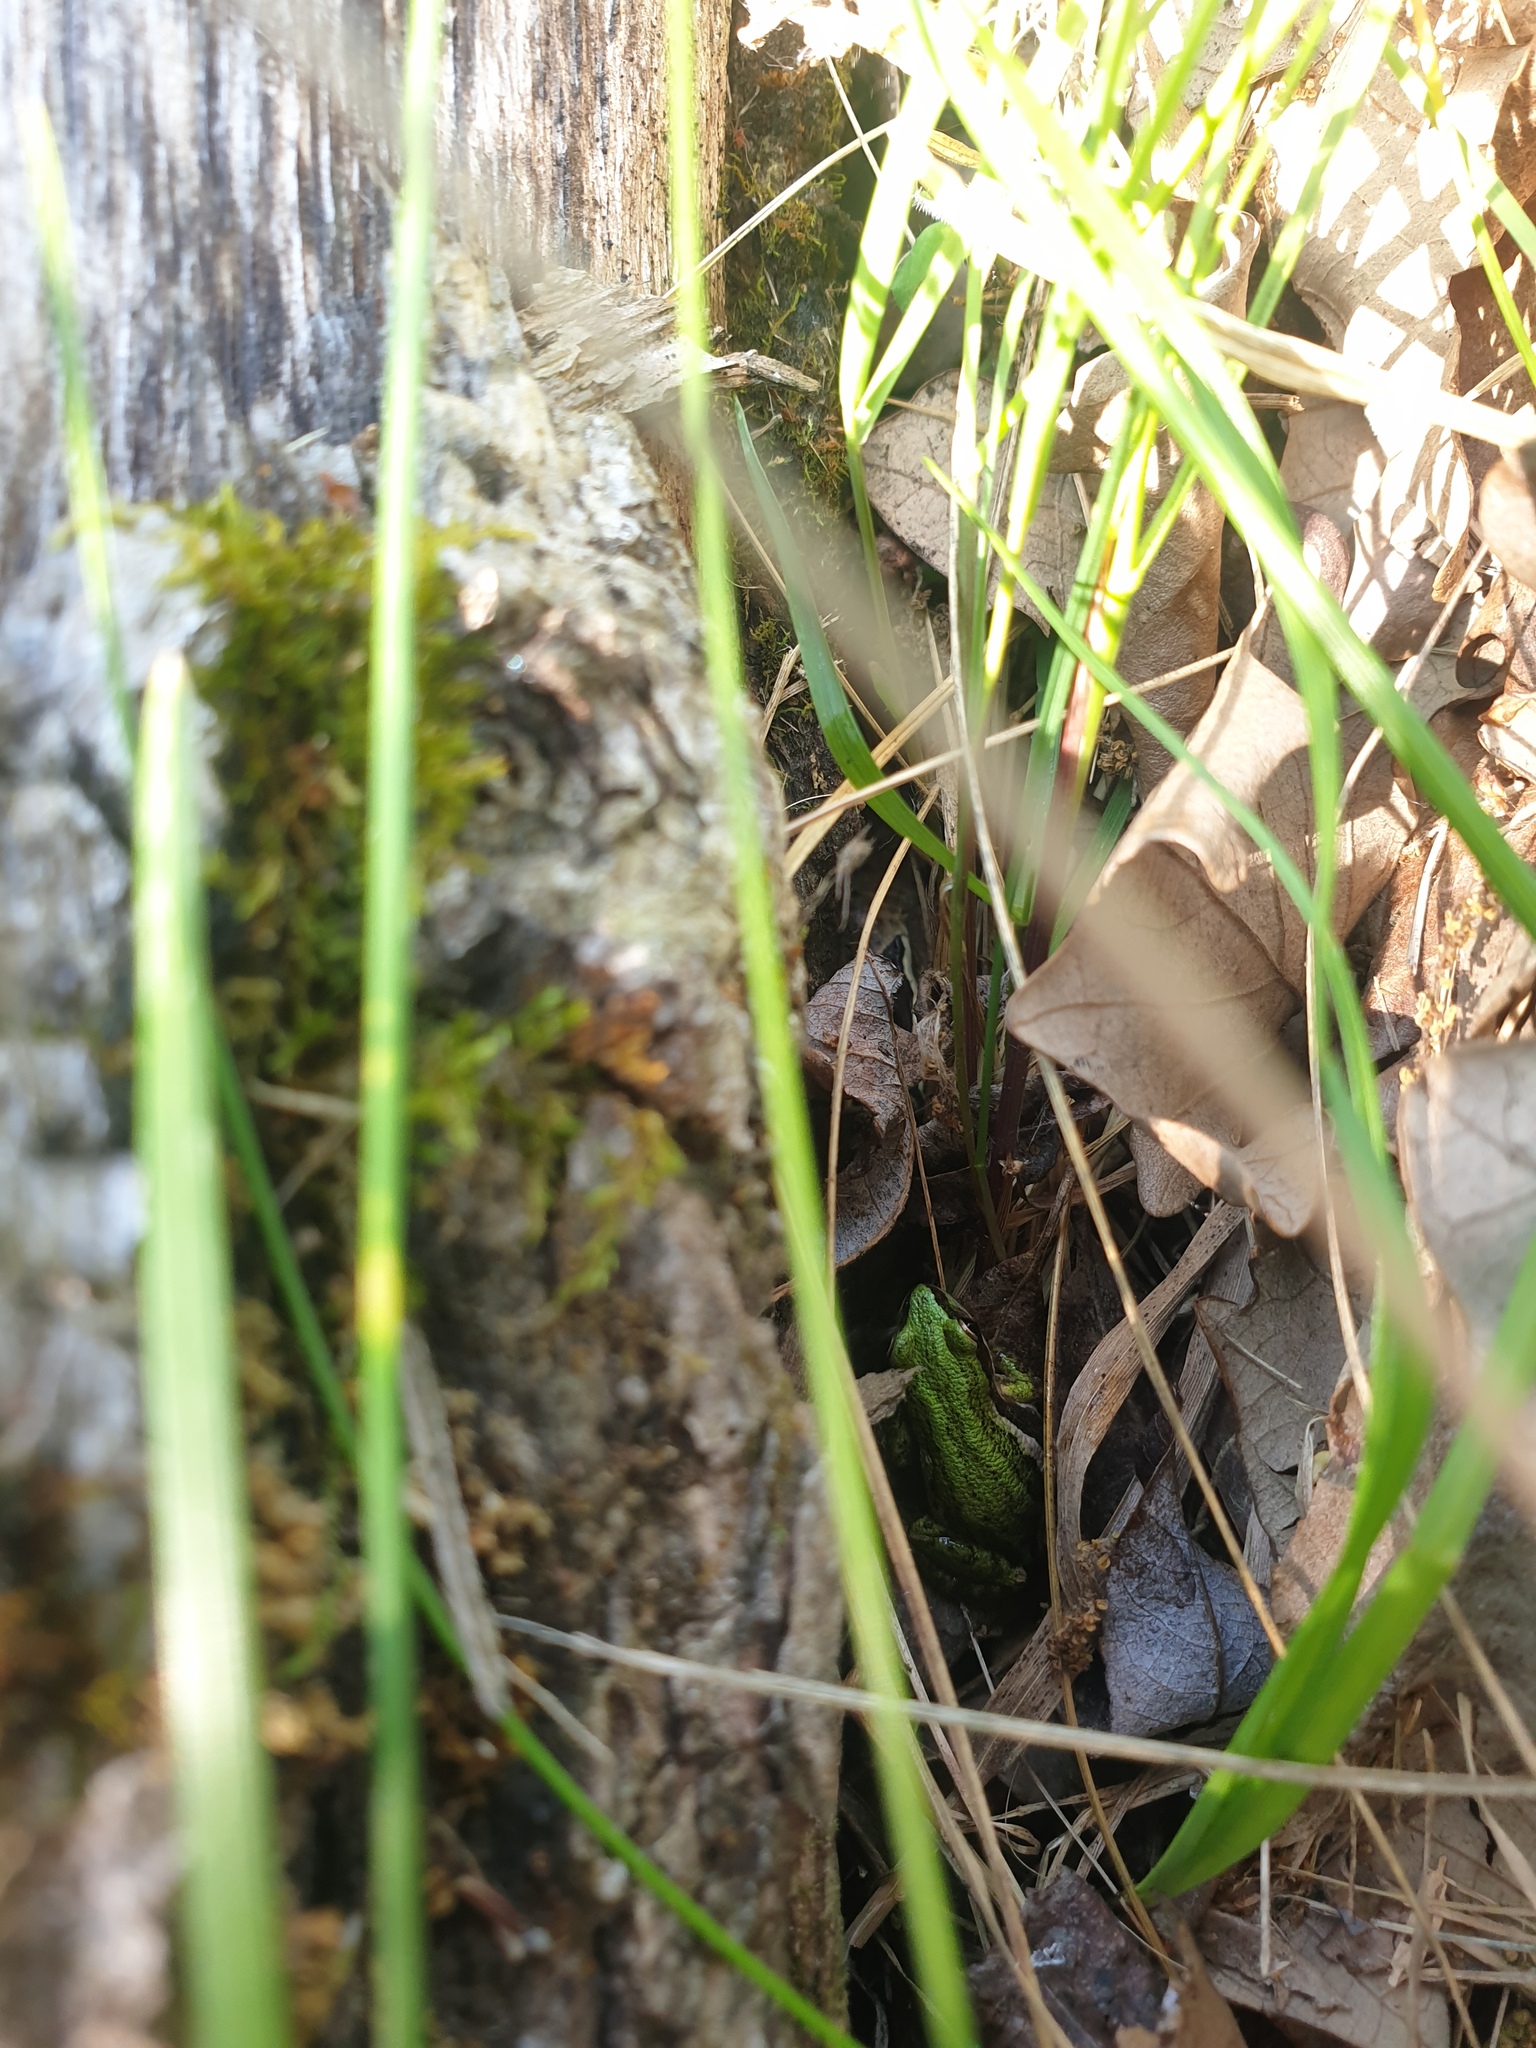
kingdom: Animalia
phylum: Chordata
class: Amphibia
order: Anura
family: Hylidae
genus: Pseudacris
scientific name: Pseudacris maculata
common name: Boreal chorus frog
